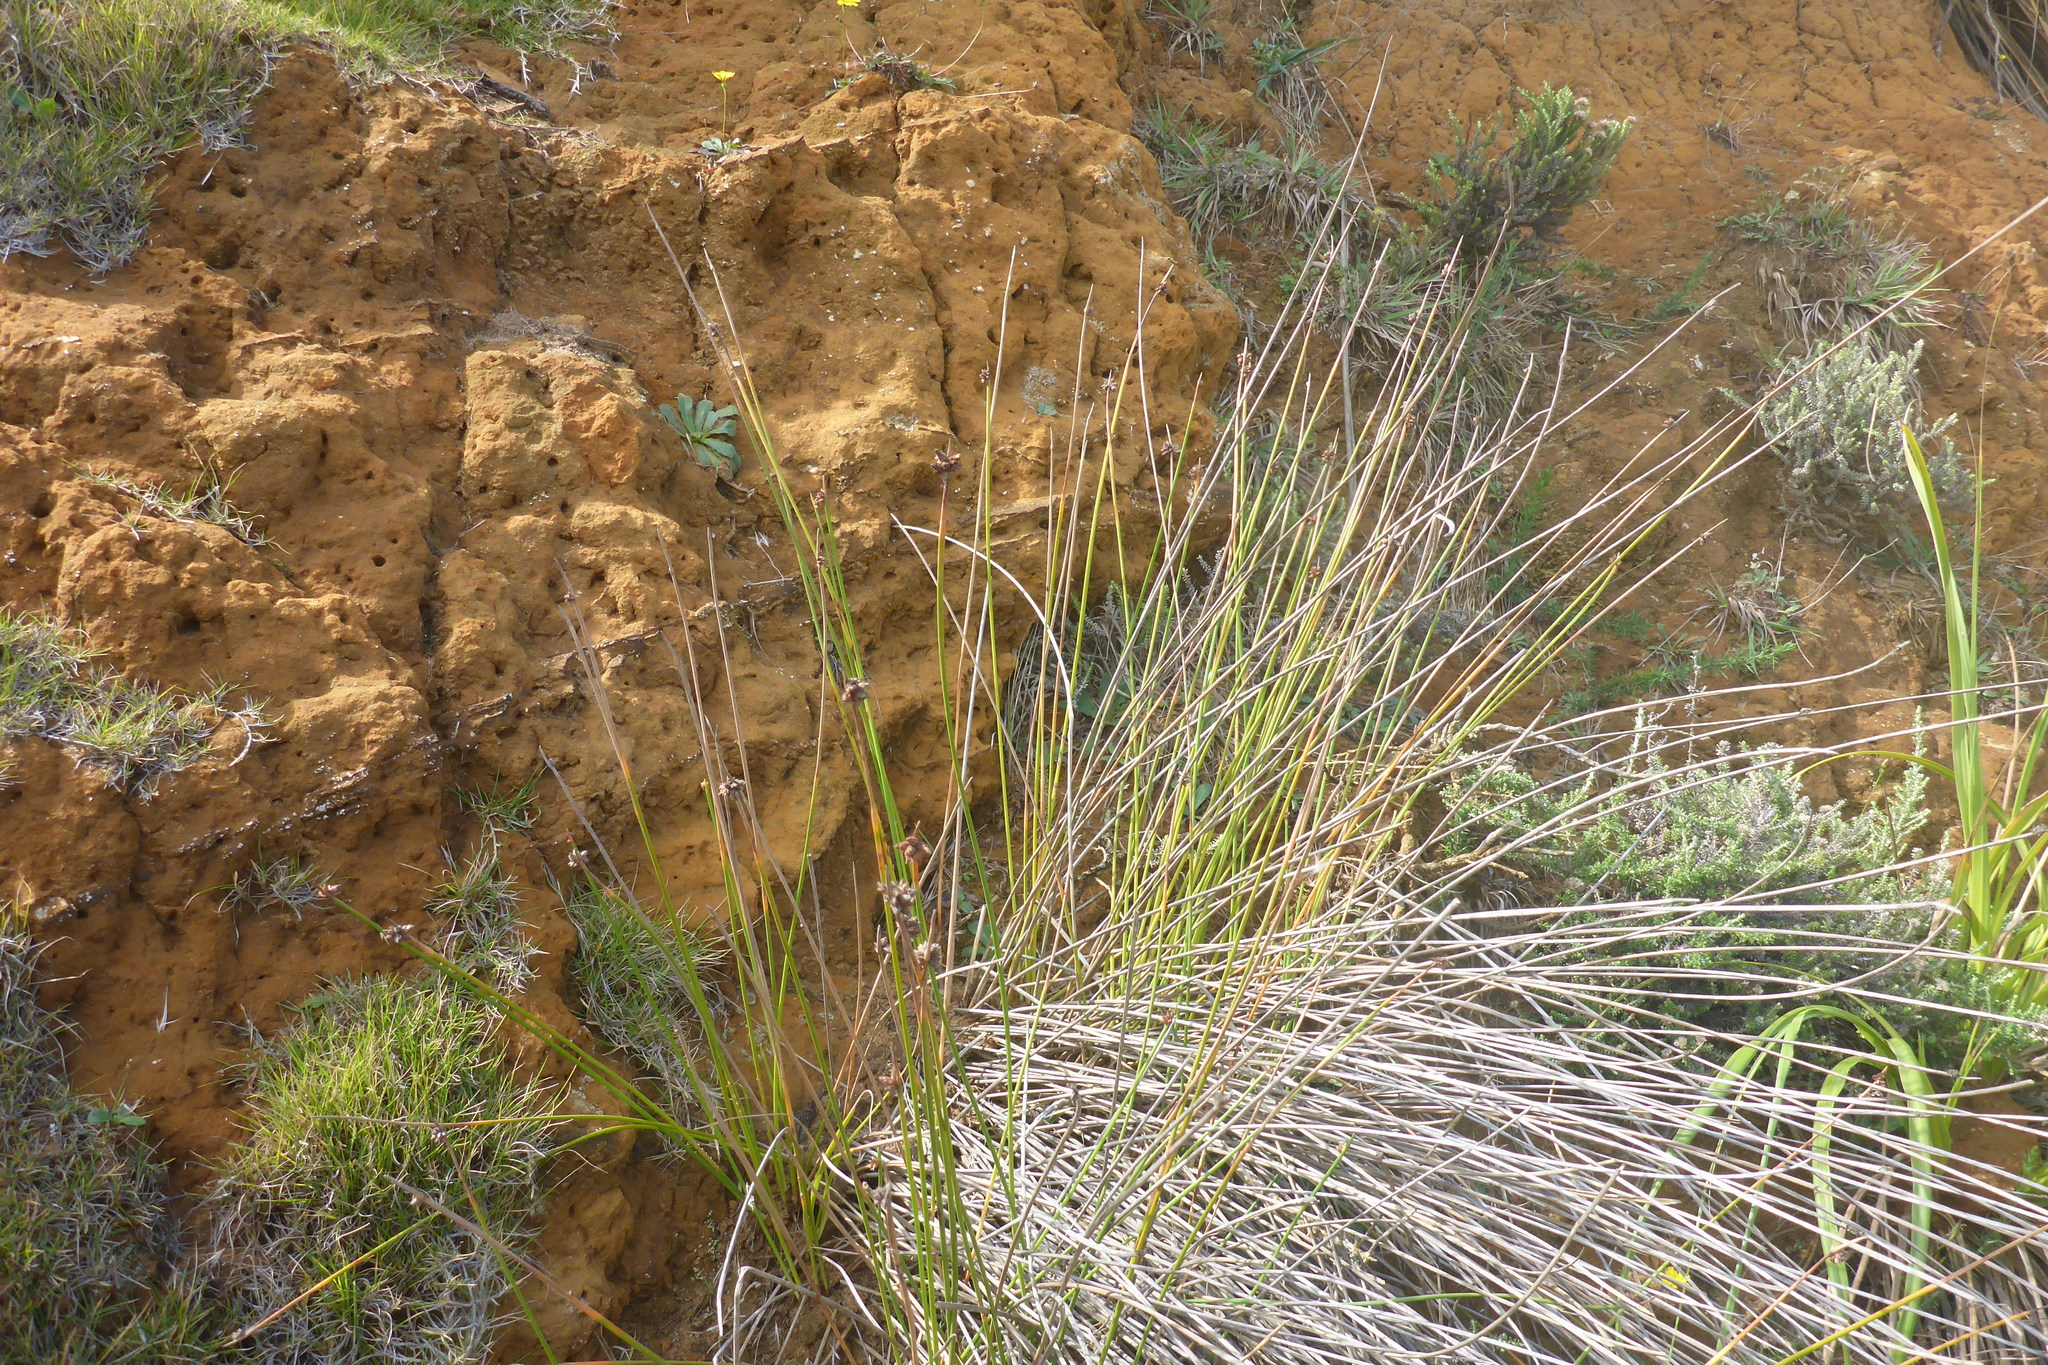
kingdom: Plantae
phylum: Tracheophyta
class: Liliopsida
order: Poales
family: Cyperaceae
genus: Ficinia
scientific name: Ficinia nodosa
